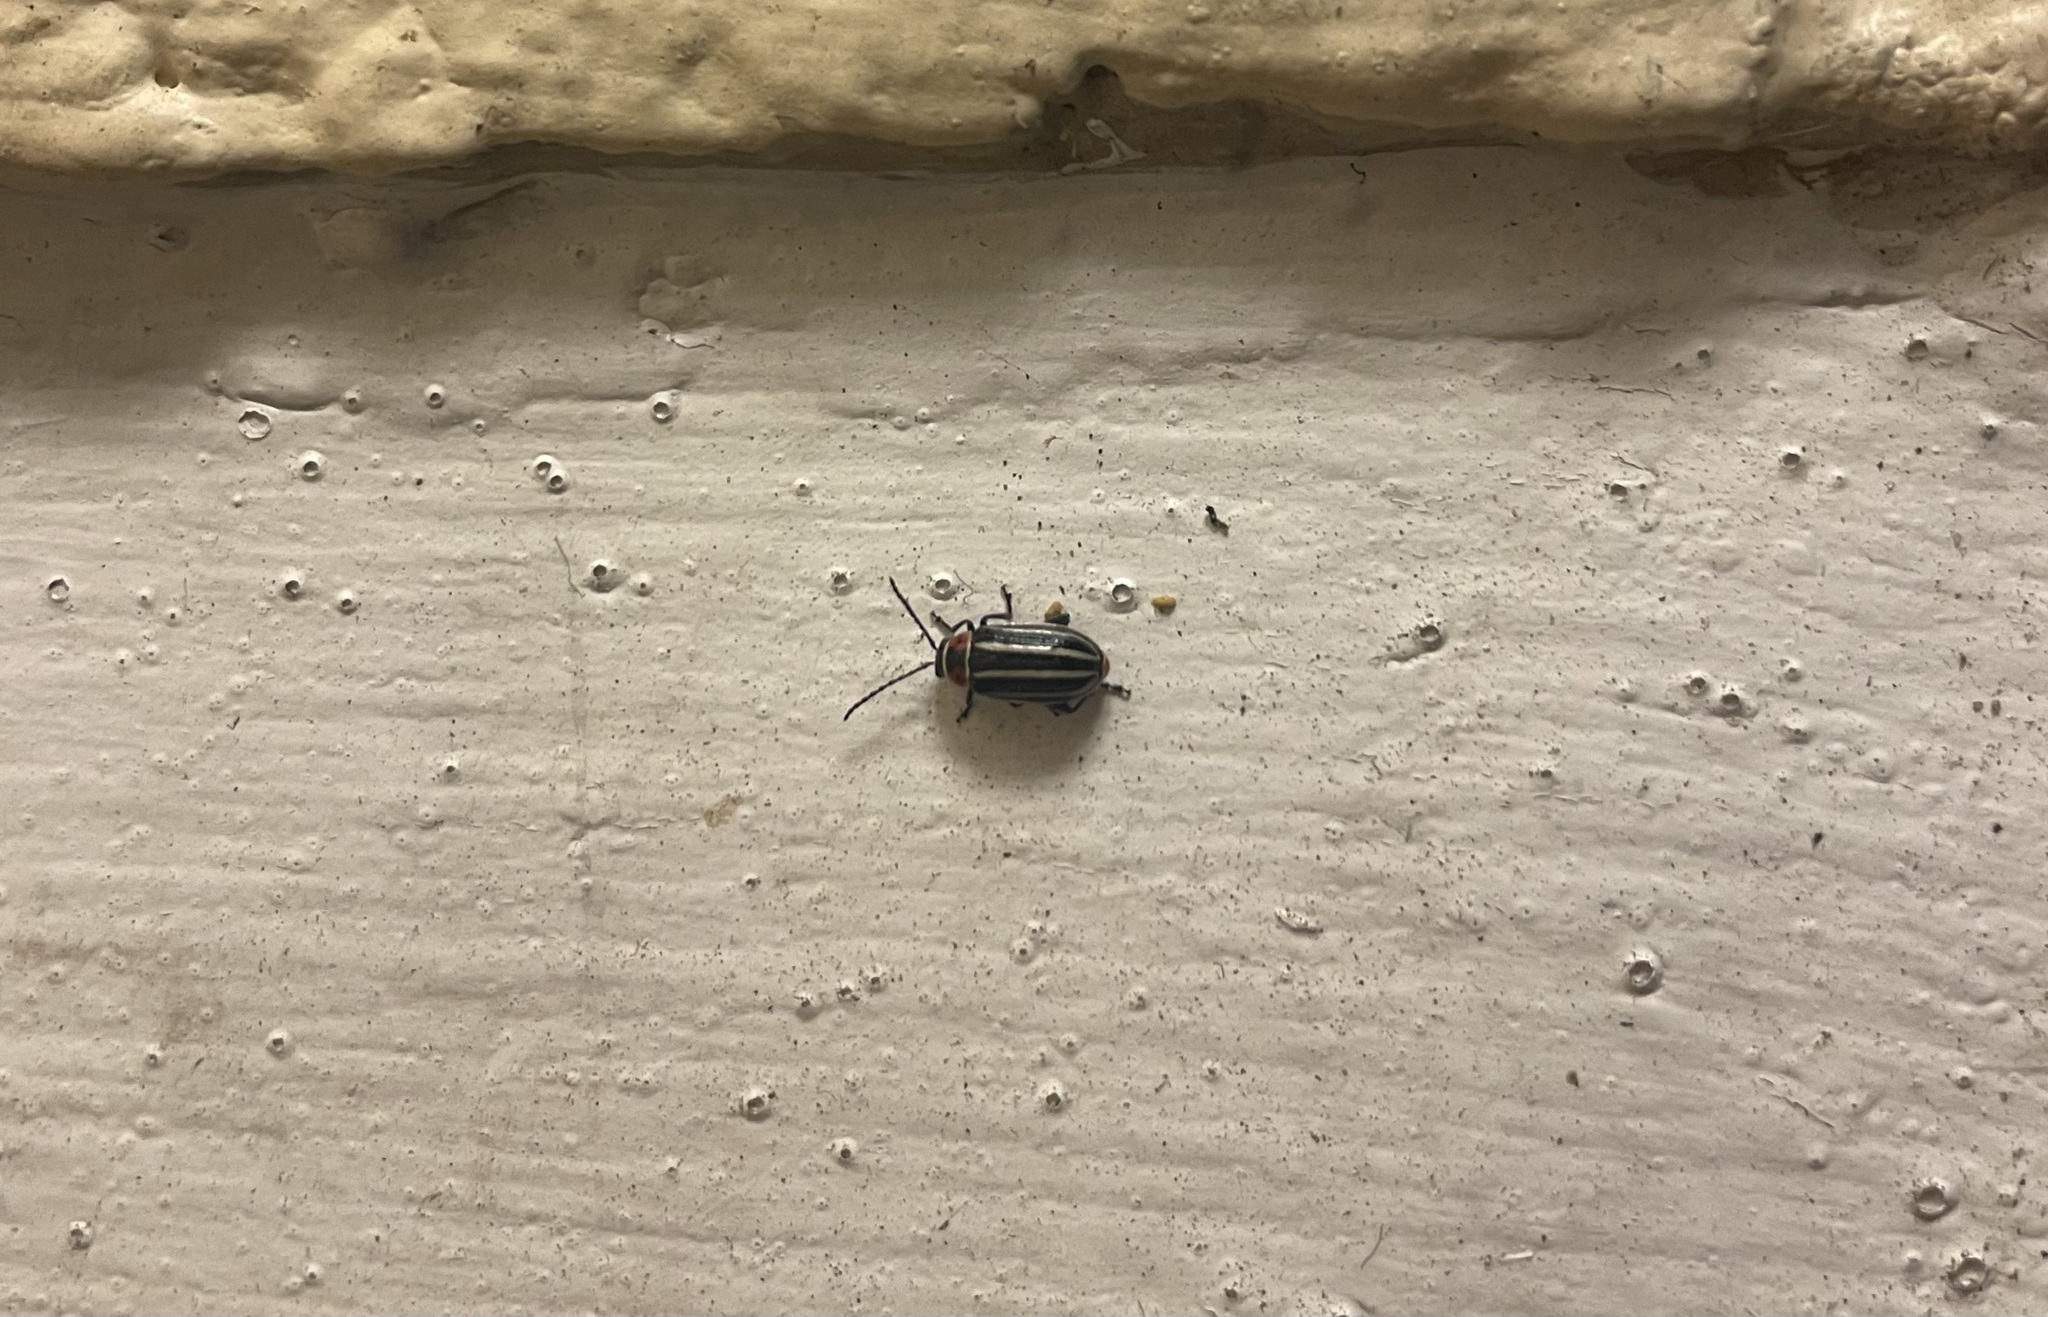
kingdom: Animalia
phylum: Arthropoda
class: Insecta
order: Coleoptera
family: Chrysomelidae
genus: Disonycha
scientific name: Disonycha pensylvanica
